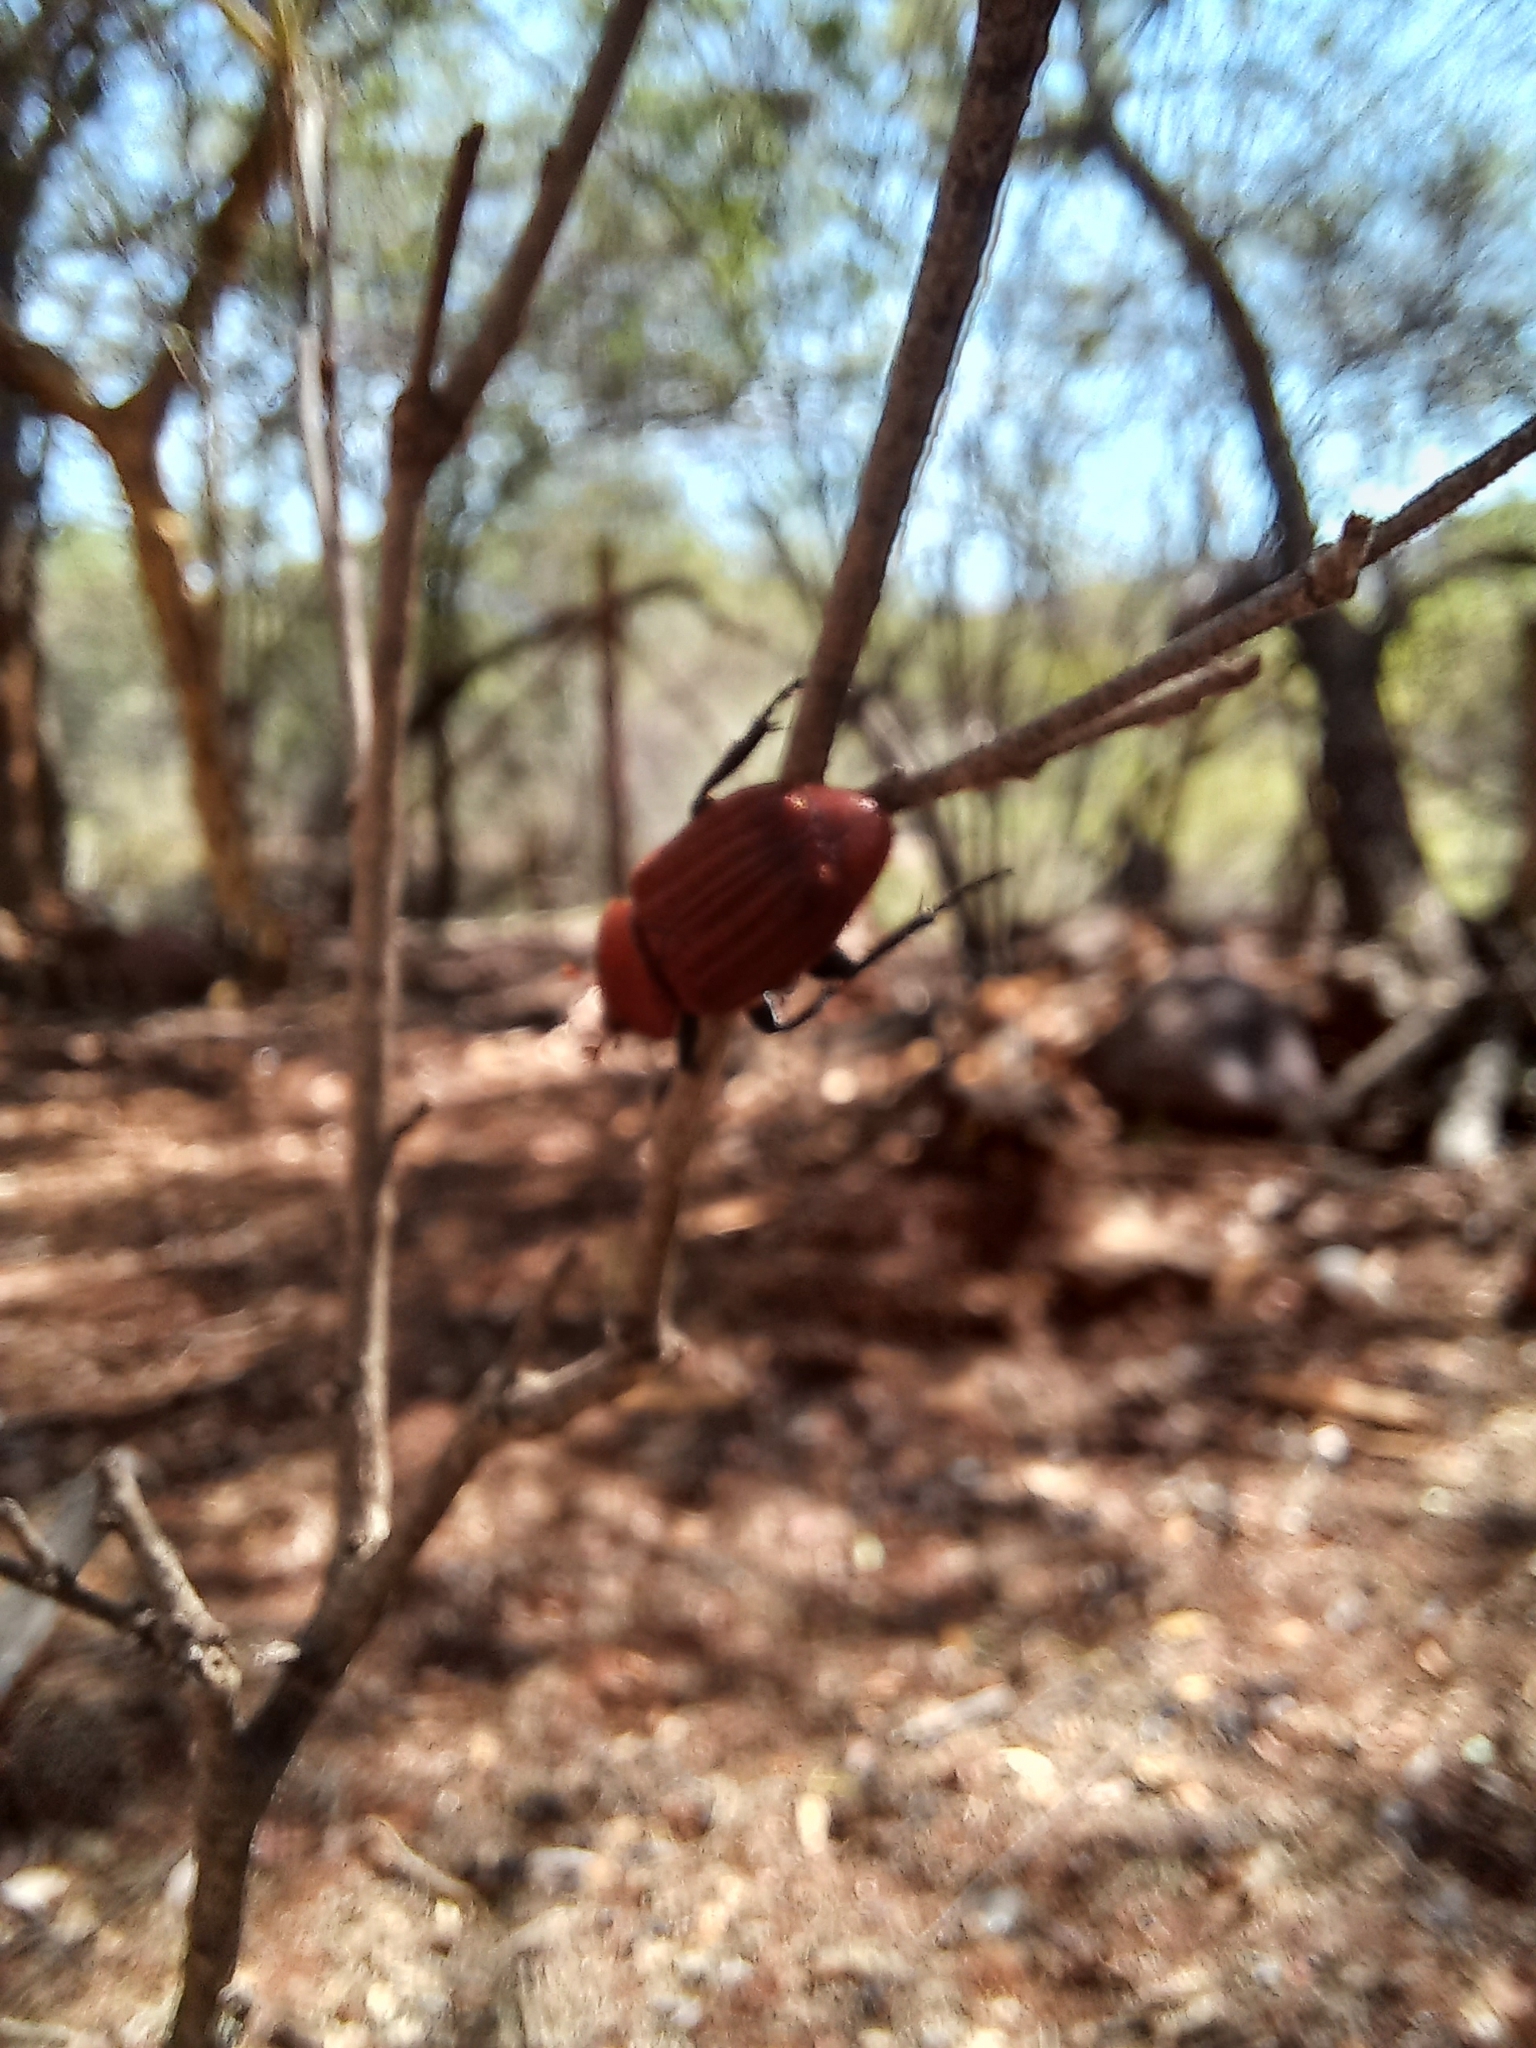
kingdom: Animalia
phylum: Arthropoda
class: Insecta
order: Coleoptera
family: Scarabaeidae
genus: Myodermum
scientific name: Myodermum rufum
